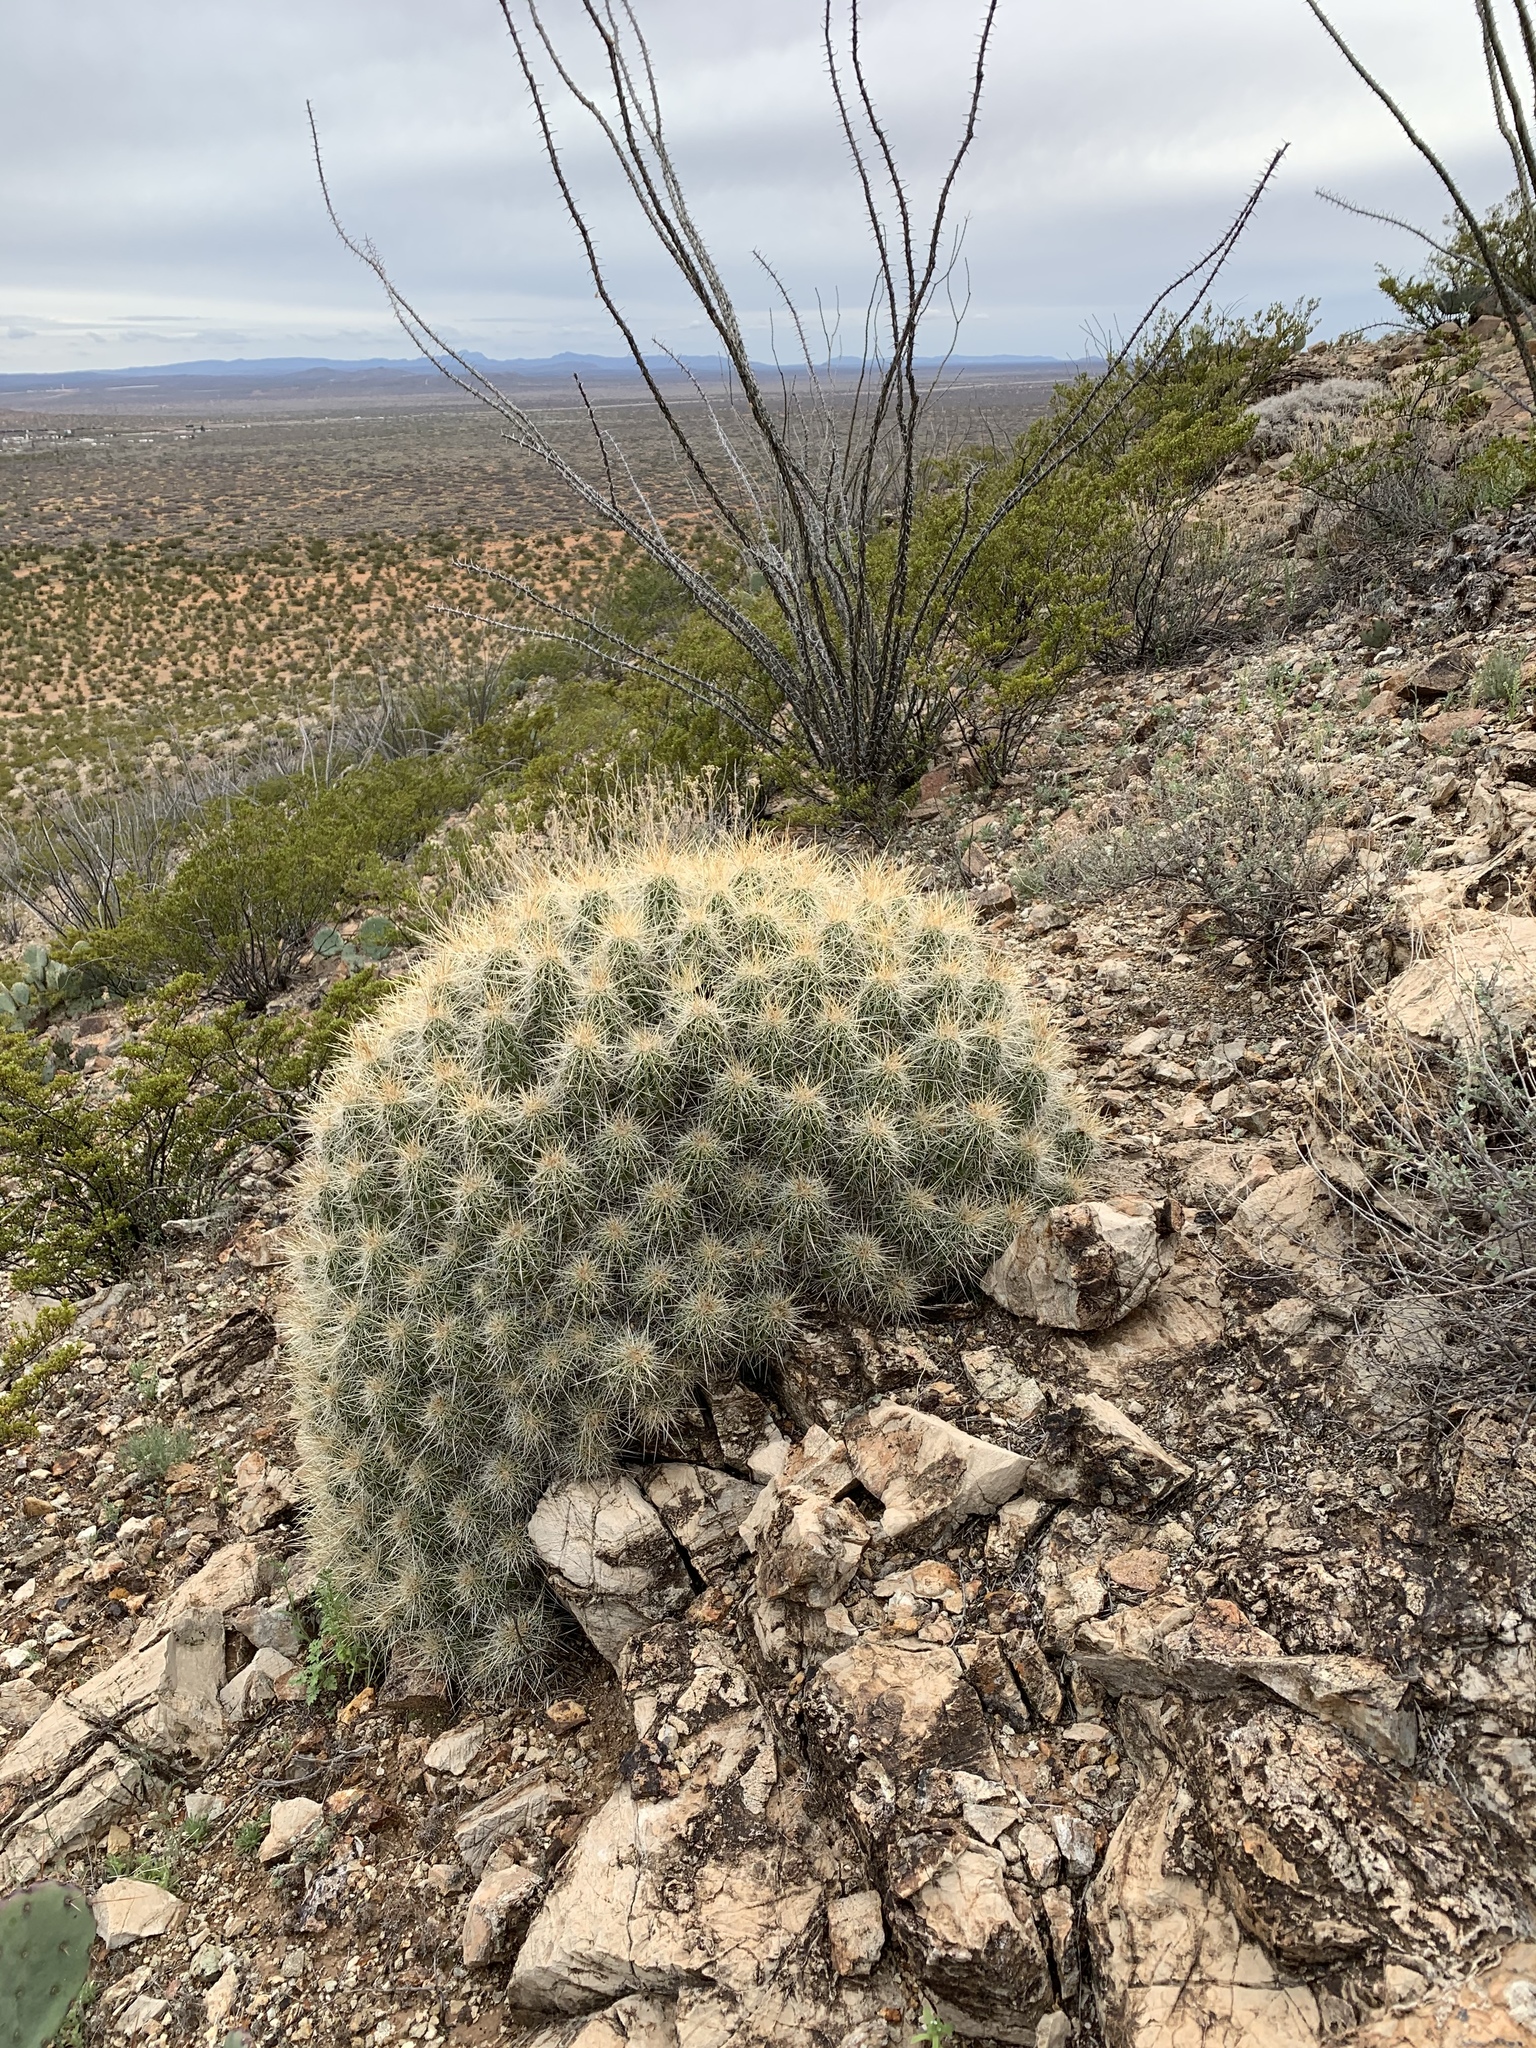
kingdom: Plantae
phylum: Tracheophyta
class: Magnoliopsida
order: Caryophyllales
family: Cactaceae
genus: Echinocereus
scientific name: Echinocereus stramineus
